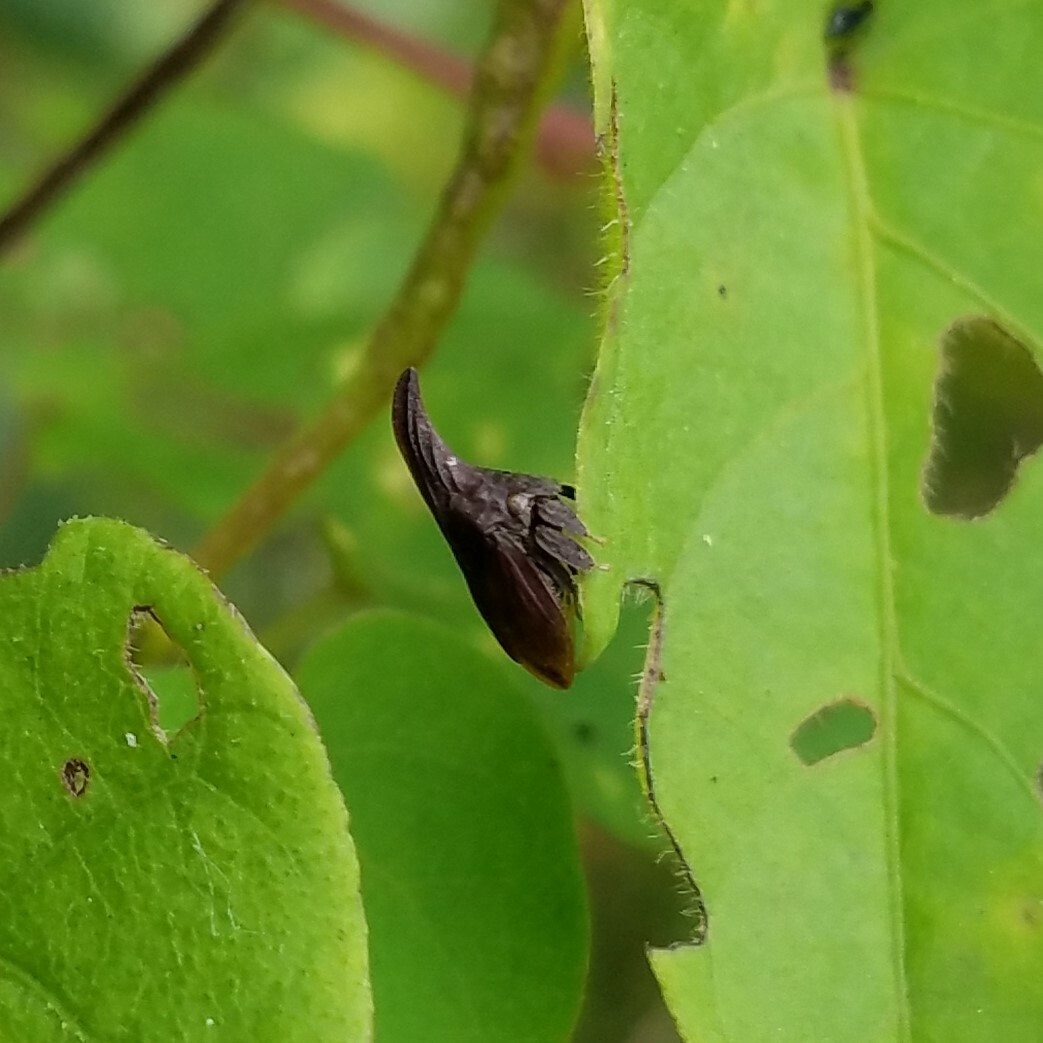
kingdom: Animalia
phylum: Arthropoda
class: Insecta
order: Hemiptera
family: Membracidae
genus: Enchenopa
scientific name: Enchenopa latipes
